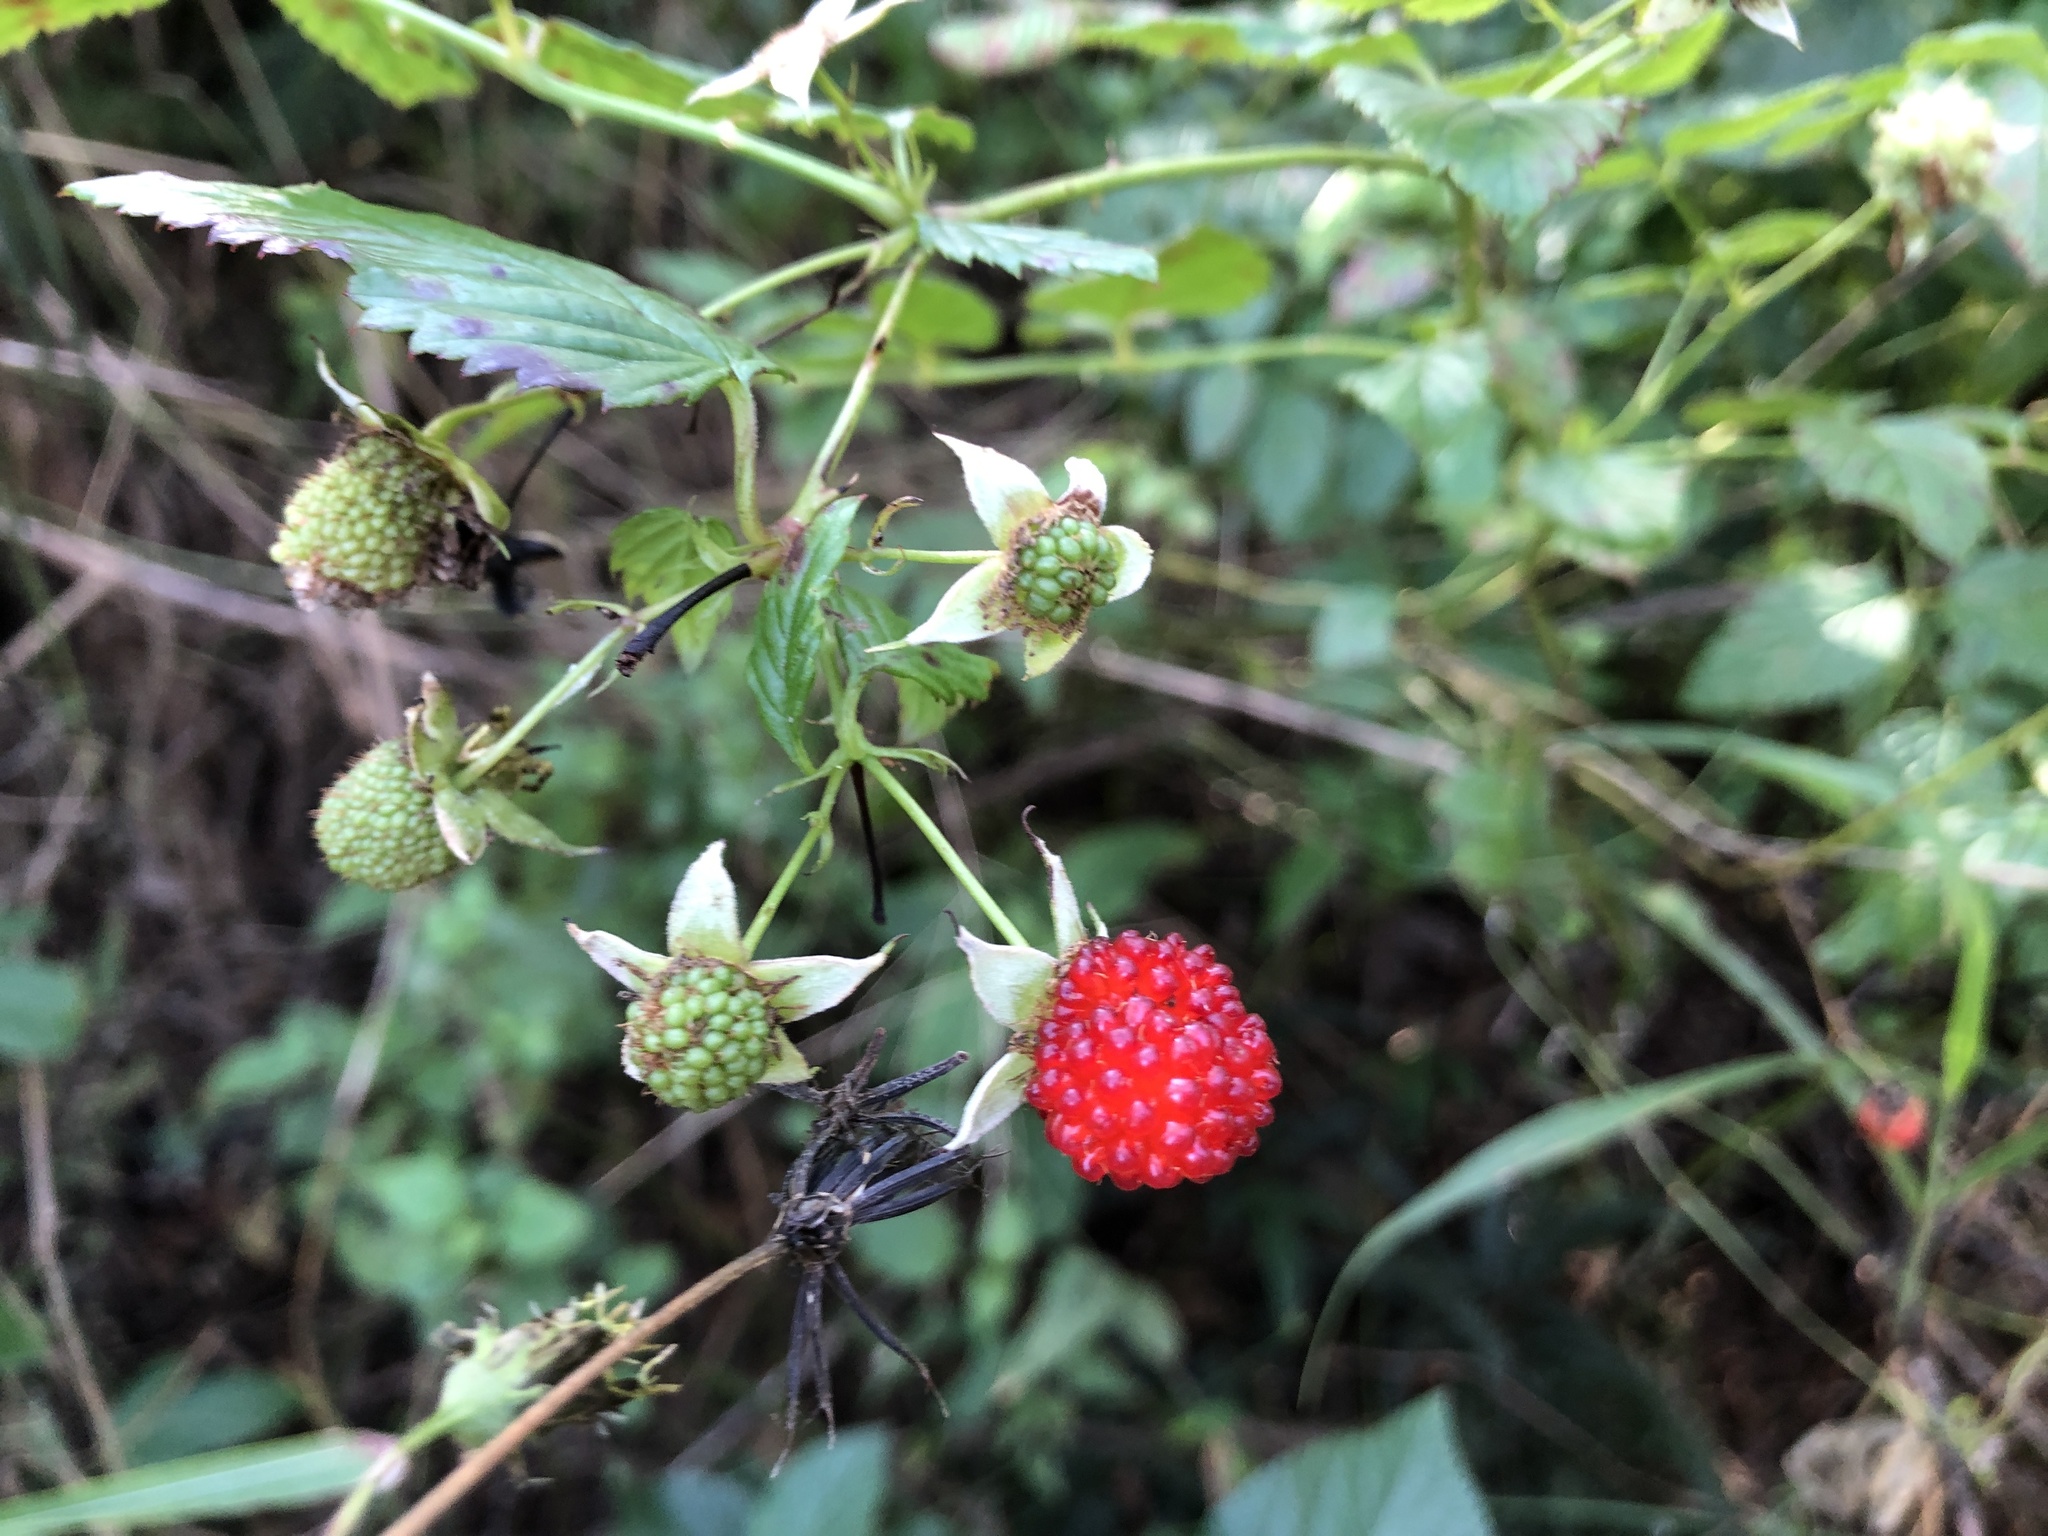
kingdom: Plantae
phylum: Tracheophyta
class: Magnoliopsida
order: Rosales
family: Rosaceae
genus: Rubus
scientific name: Rubus probus
